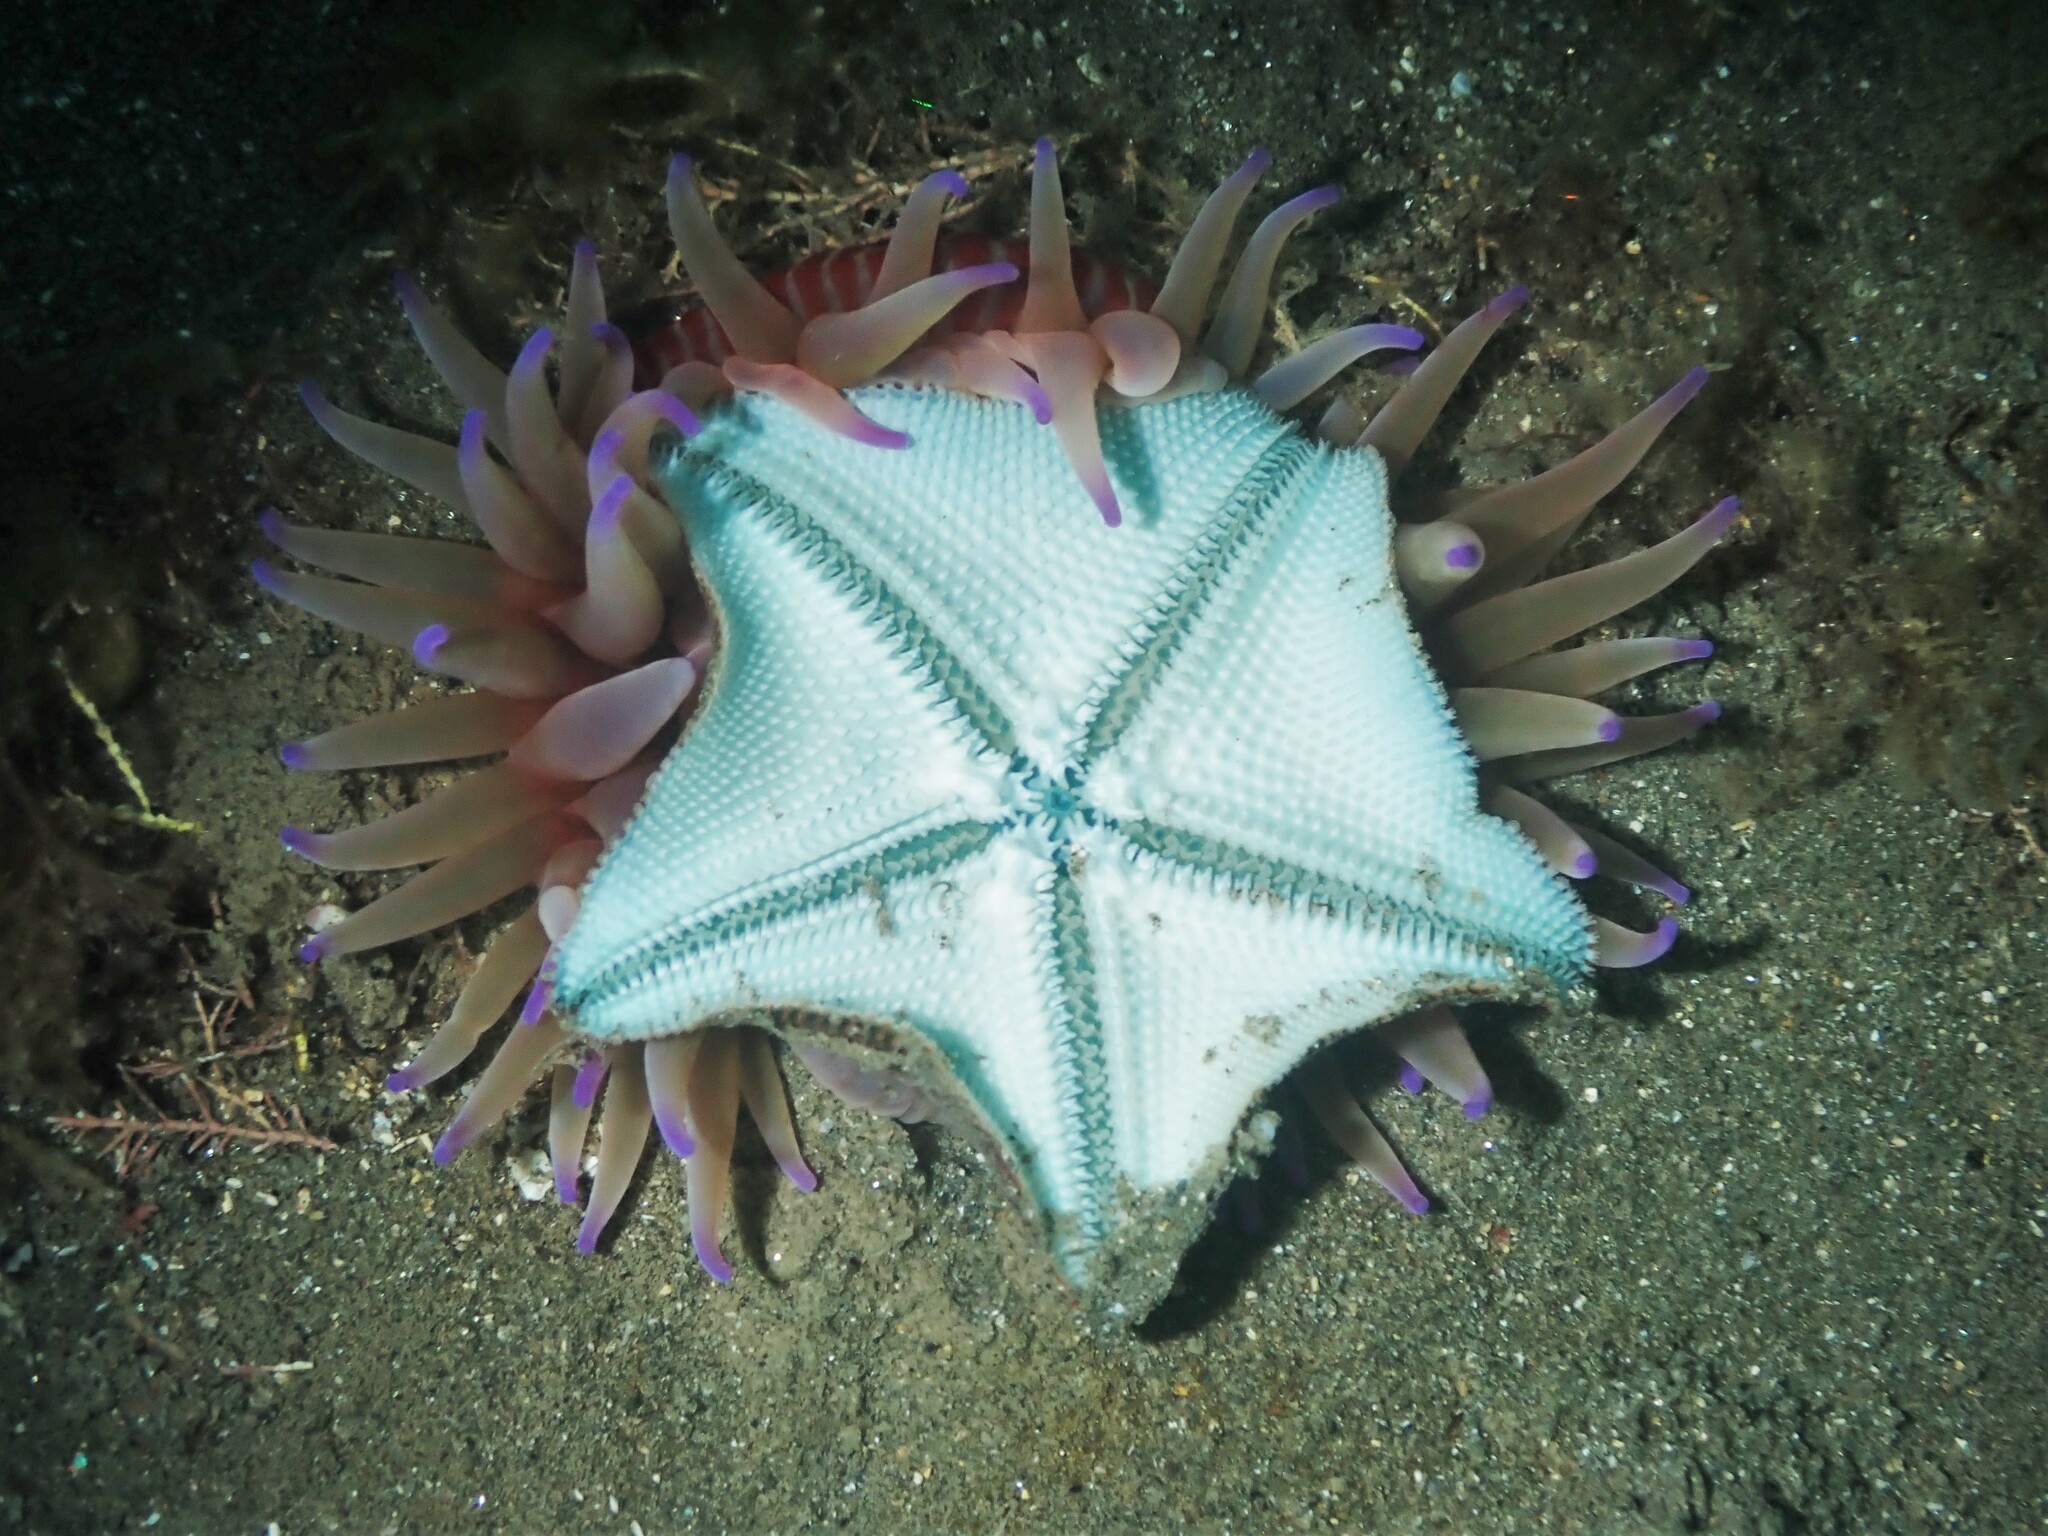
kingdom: Animalia
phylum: Cnidaria
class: Anthozoa
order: Actiniaria
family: Actiniidae
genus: Epiactis
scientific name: Epiactis thompsoni
